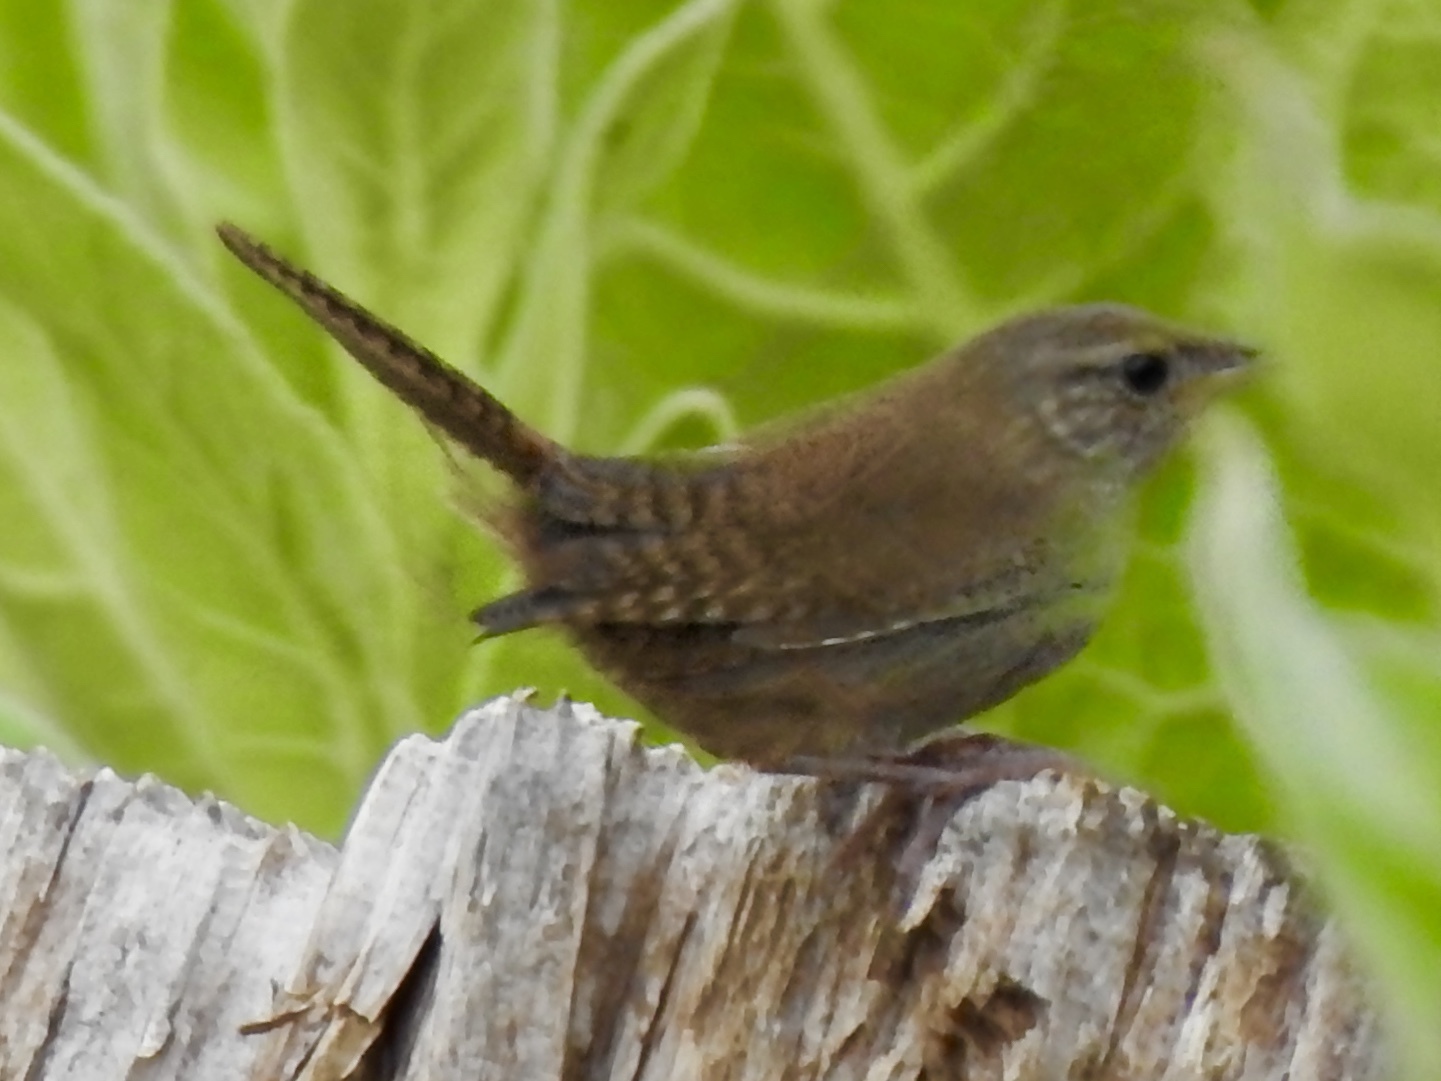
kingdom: Animalia
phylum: Chordata
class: Aves
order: Passeriformes
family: Troglodytidae
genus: Troglodytes
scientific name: Troglodytes aedon
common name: House wren
